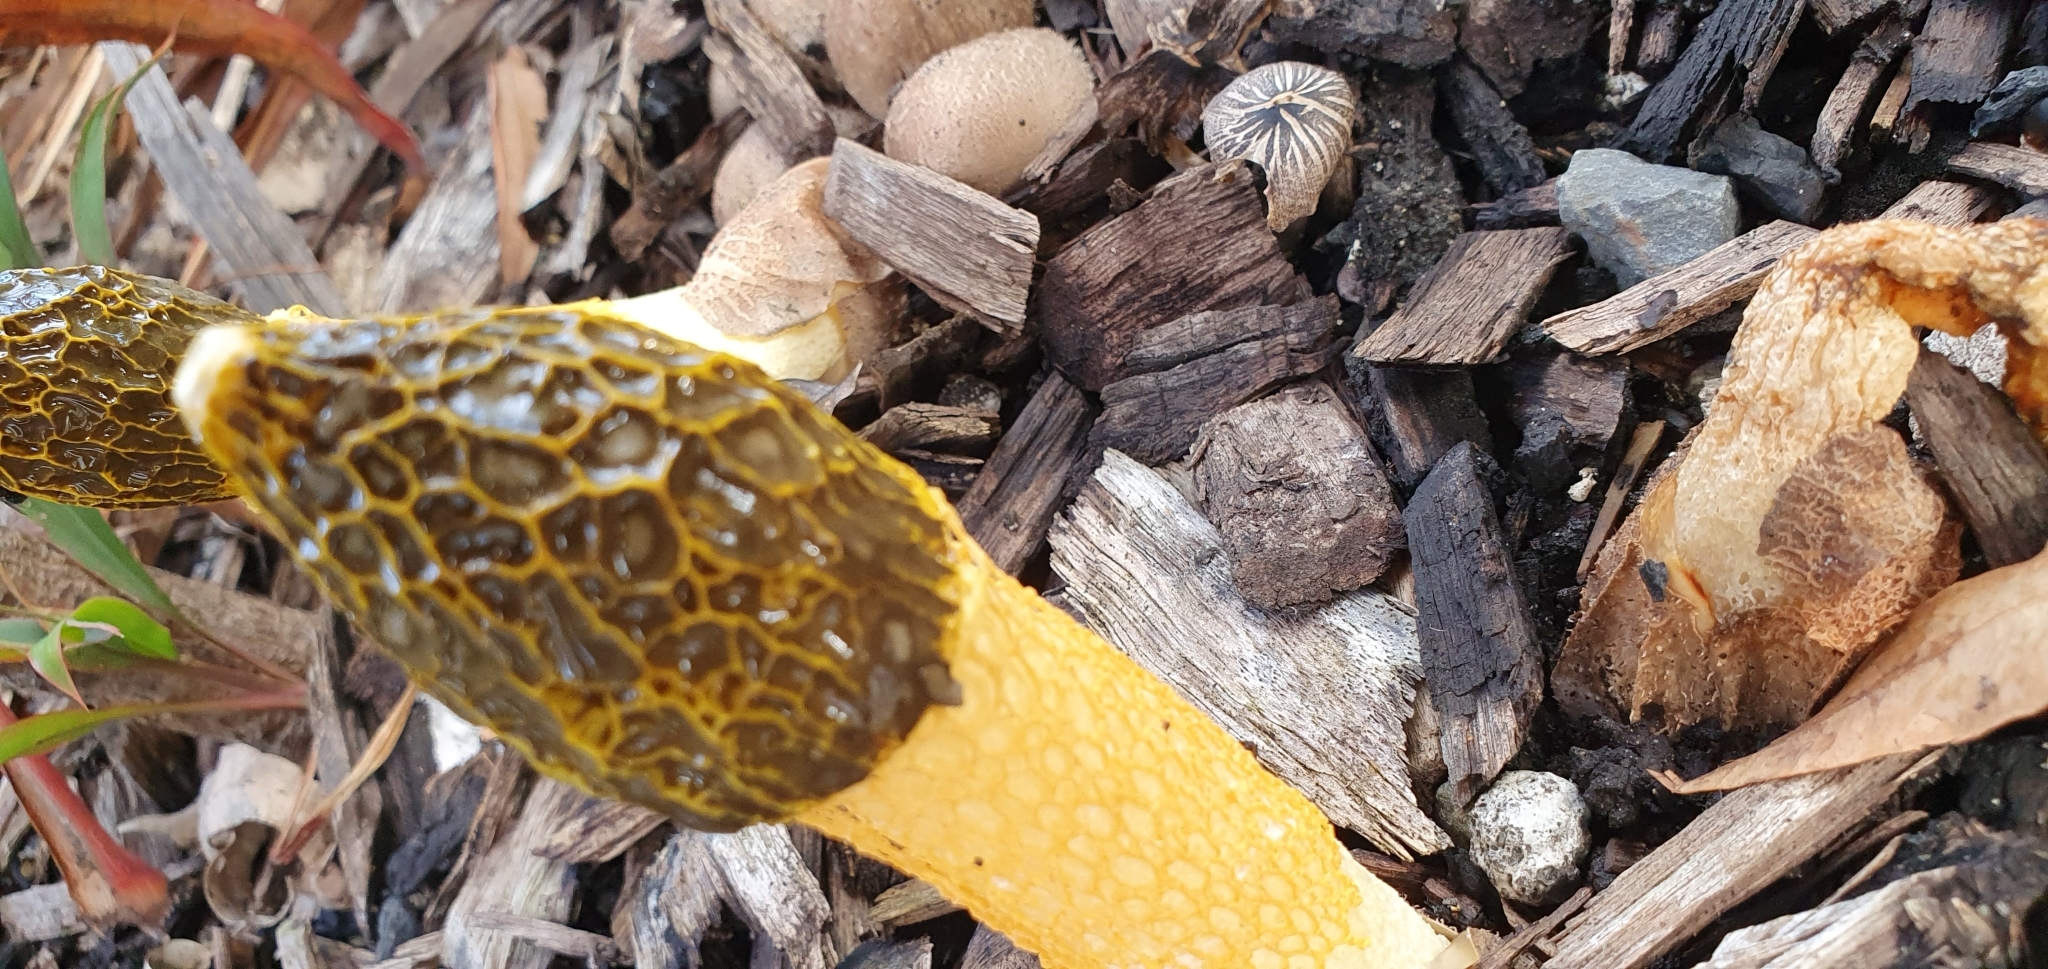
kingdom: Fungi
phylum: Basidiomycota
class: Agaricomycetes
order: Phallales
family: Phallaceae
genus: Phallus
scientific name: Phallus multicolor
